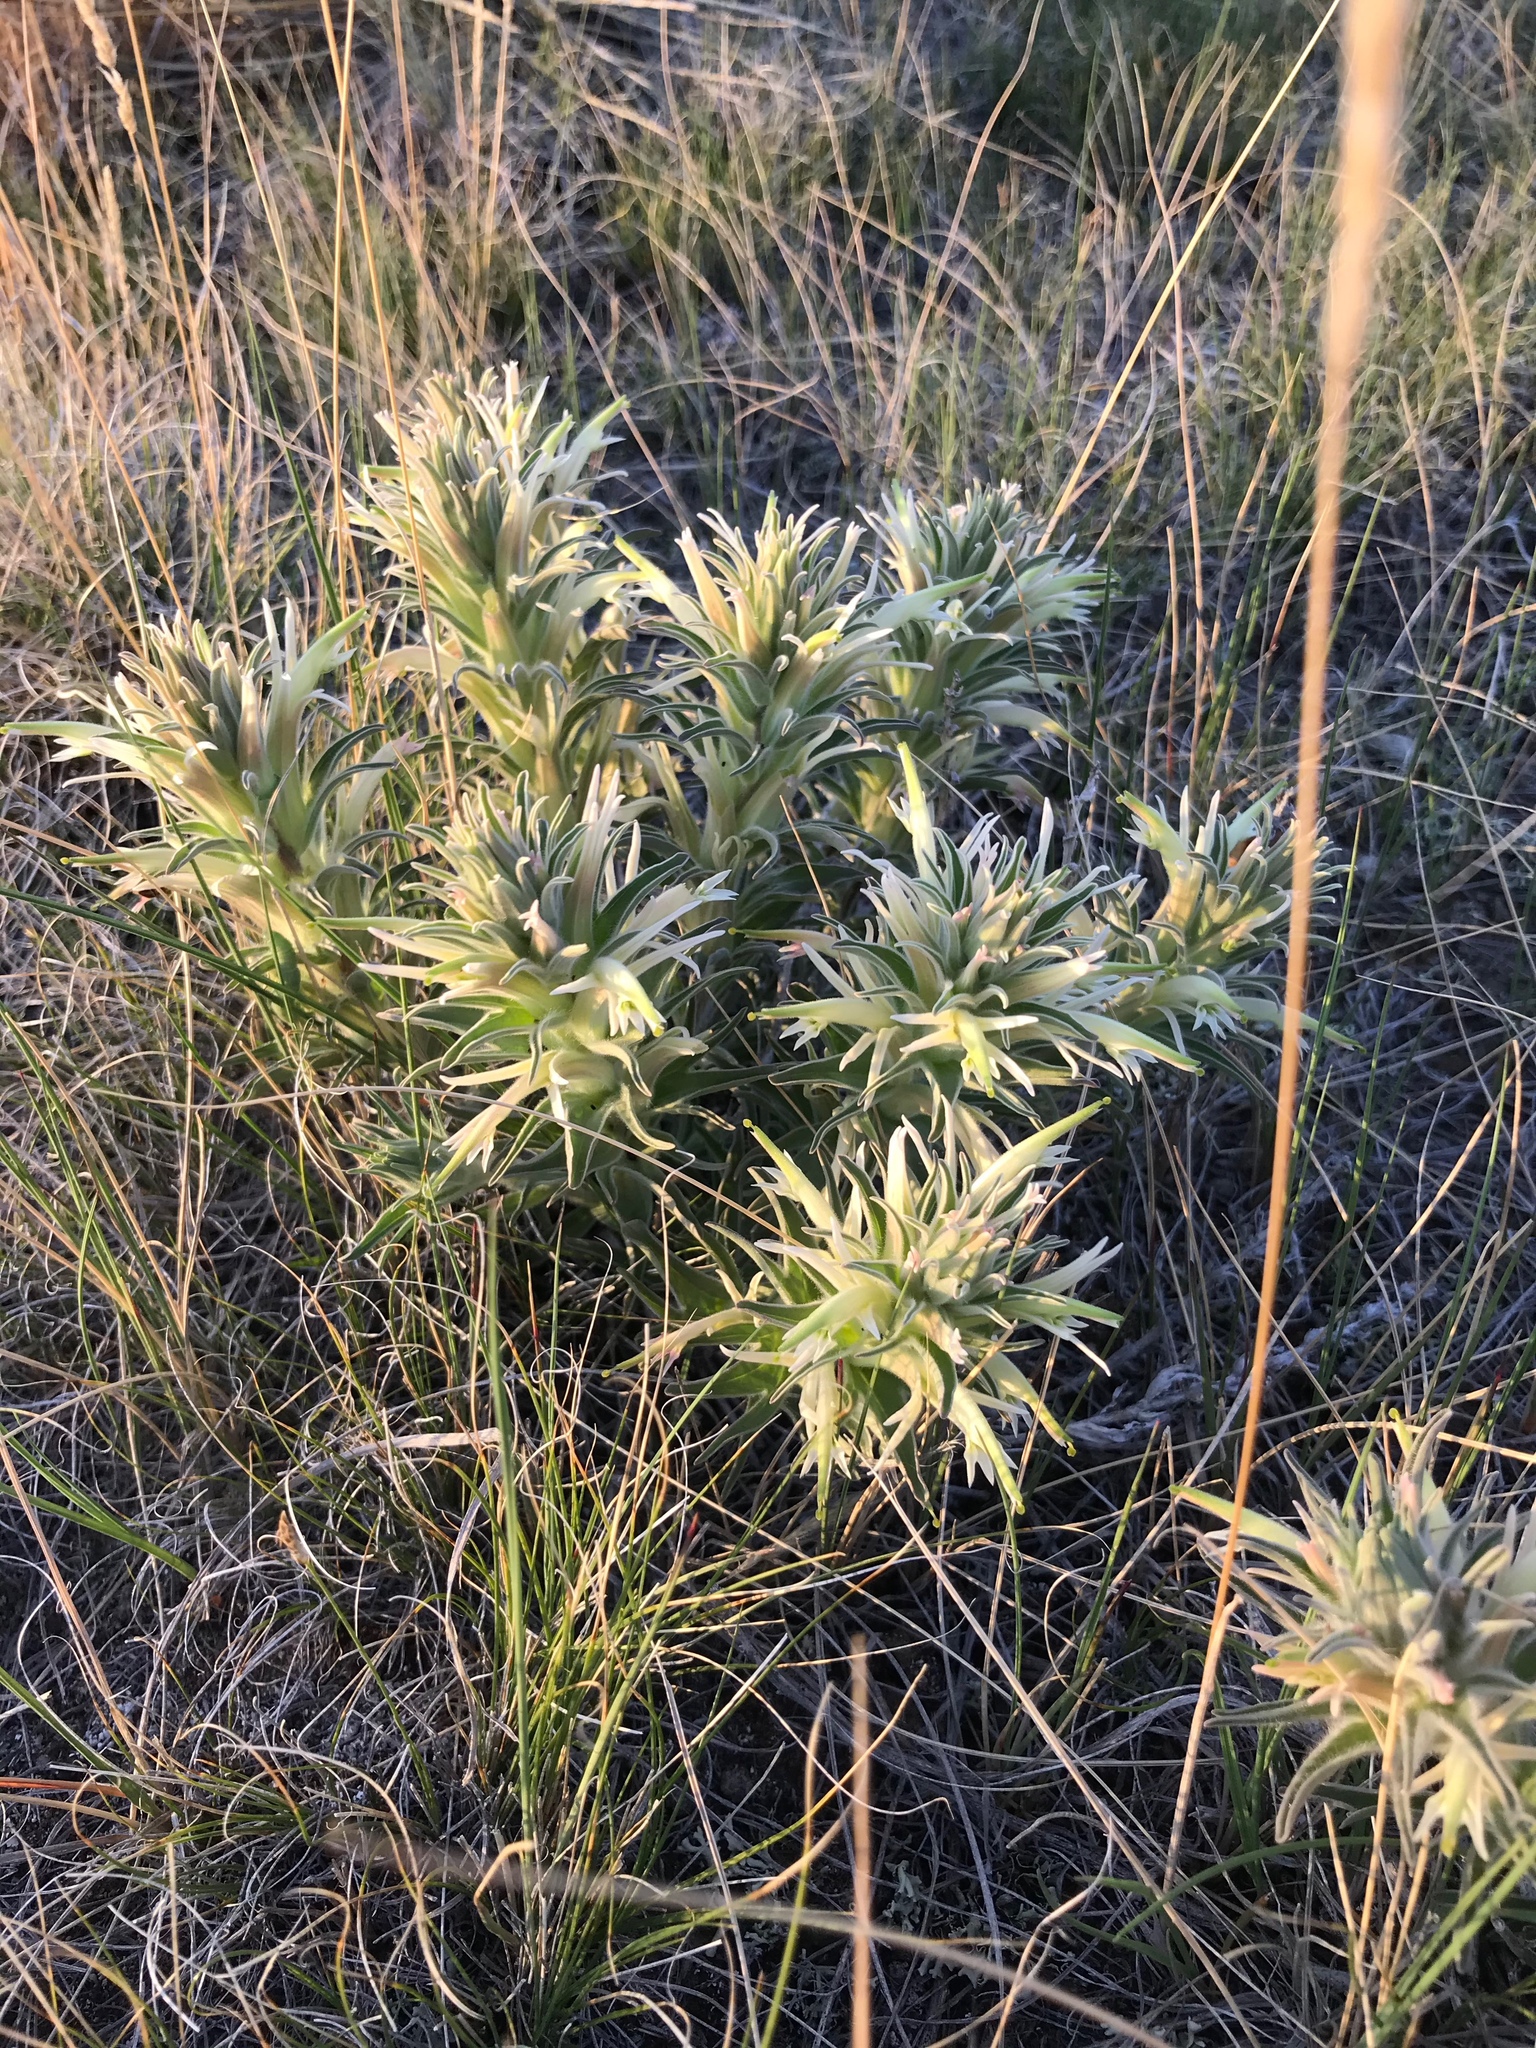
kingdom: Plantae
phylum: Tracheophyta
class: Magnoliopsida
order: Lamiales
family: Orobanchaceae
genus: Castilleja
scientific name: Castilleja sessiliflora
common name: Downy paintbrush
